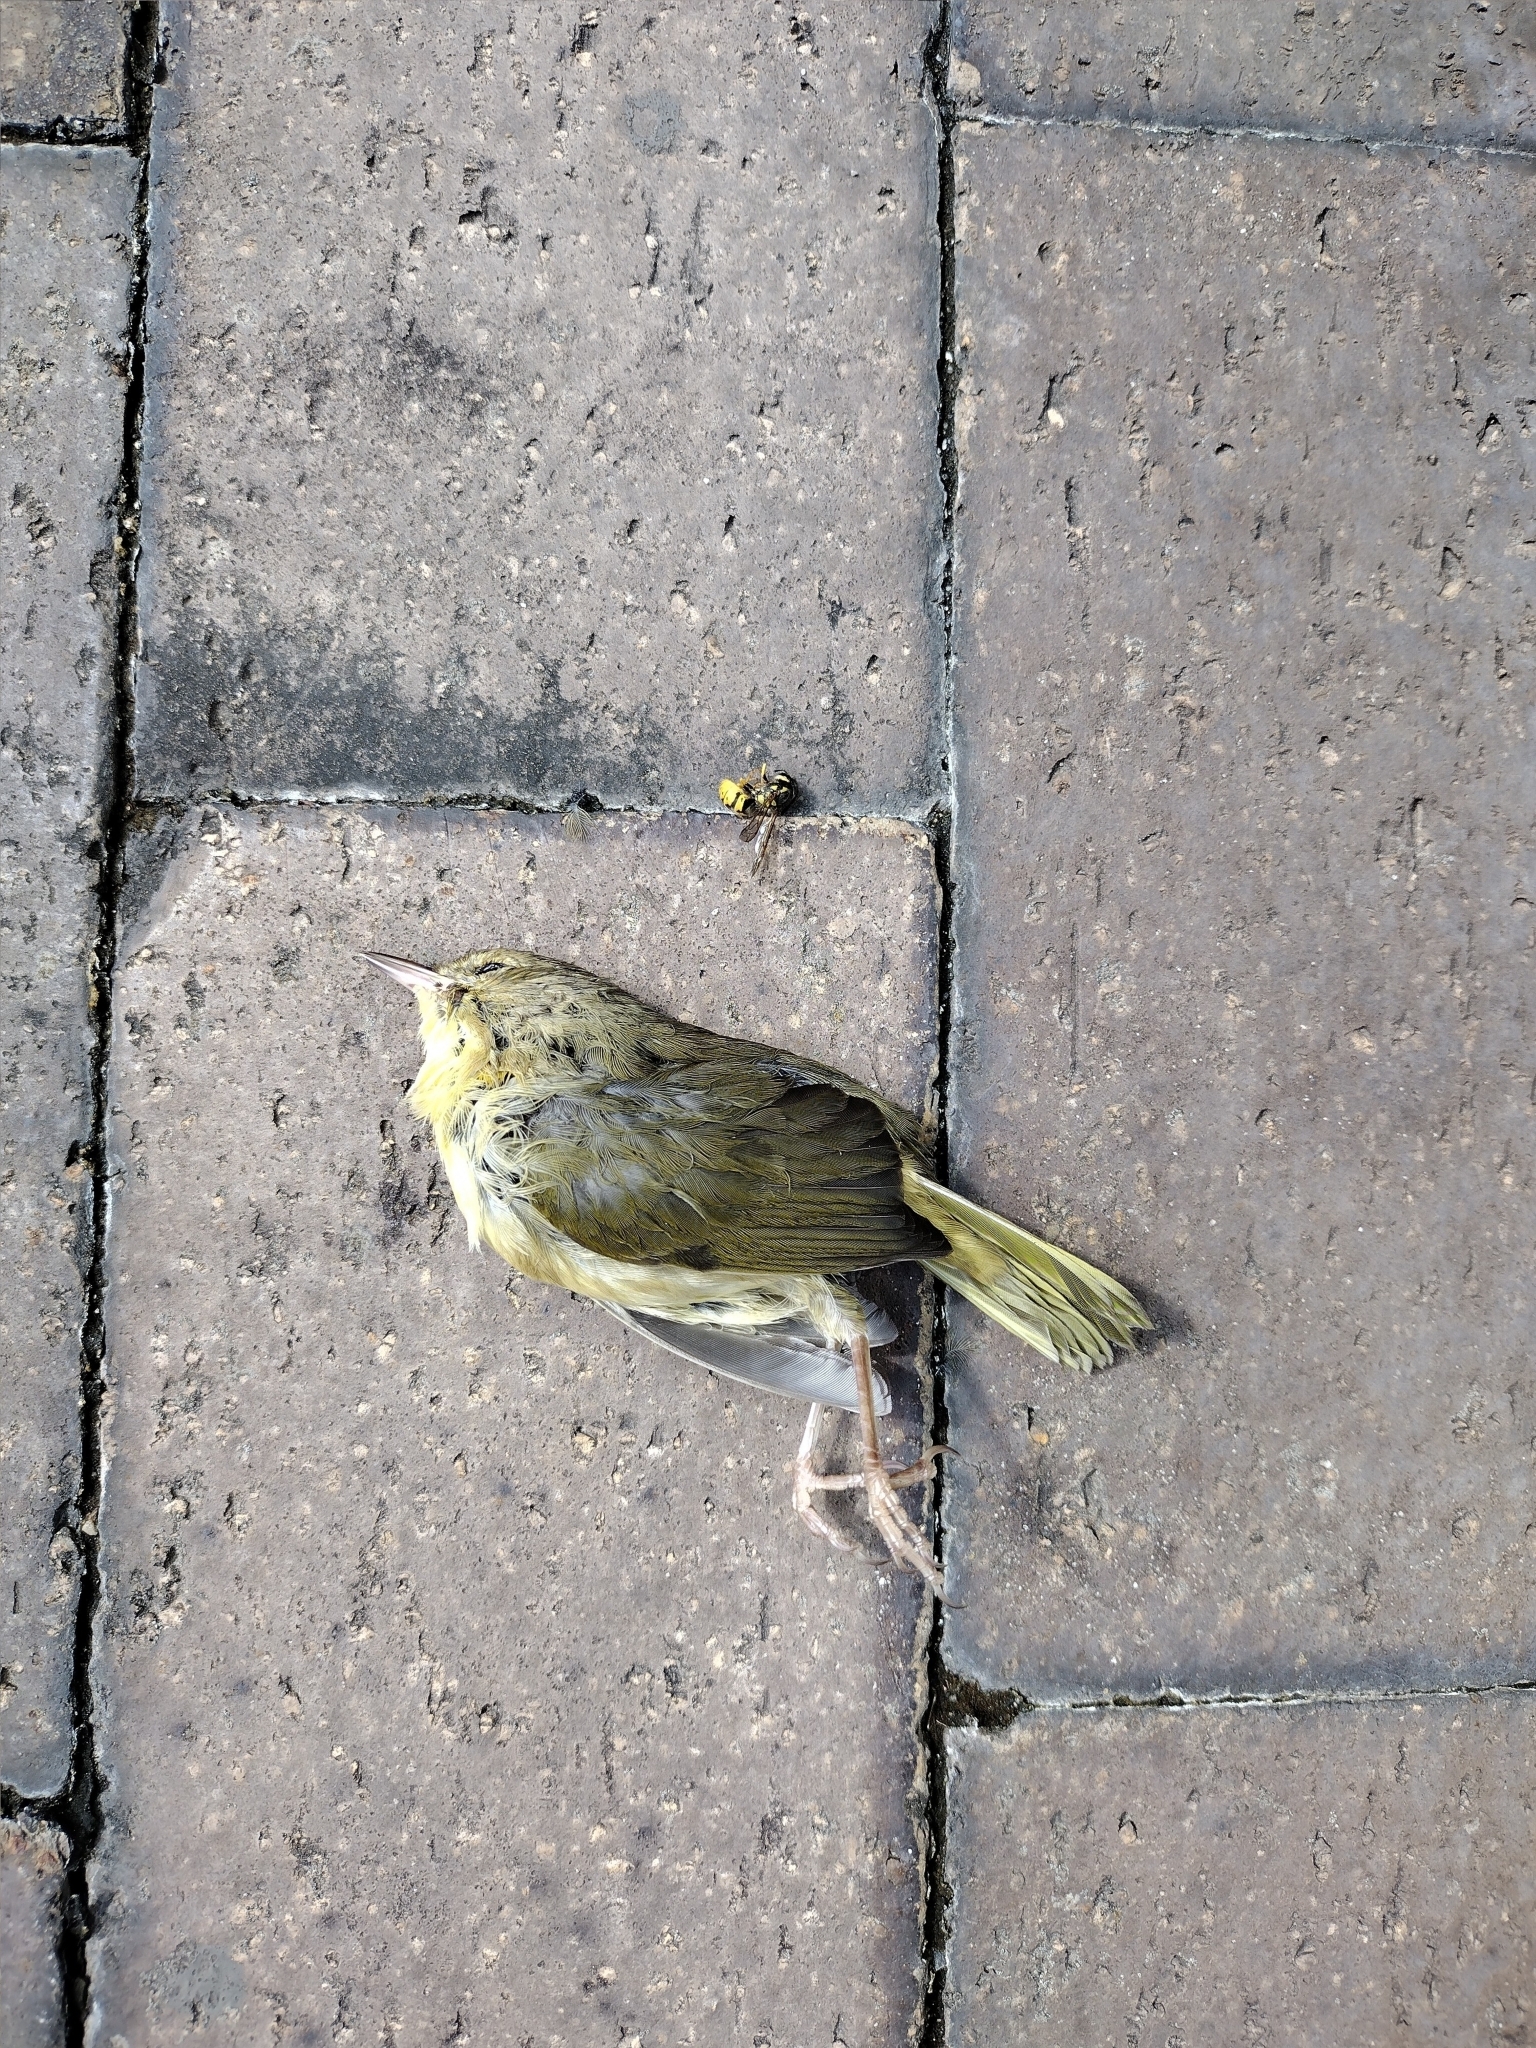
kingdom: Animalia
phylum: Chordata
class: Aves
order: Passeriformes
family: Parulidae
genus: Geothlypis
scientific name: Geothlypis trichas
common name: Common yellowthroat
